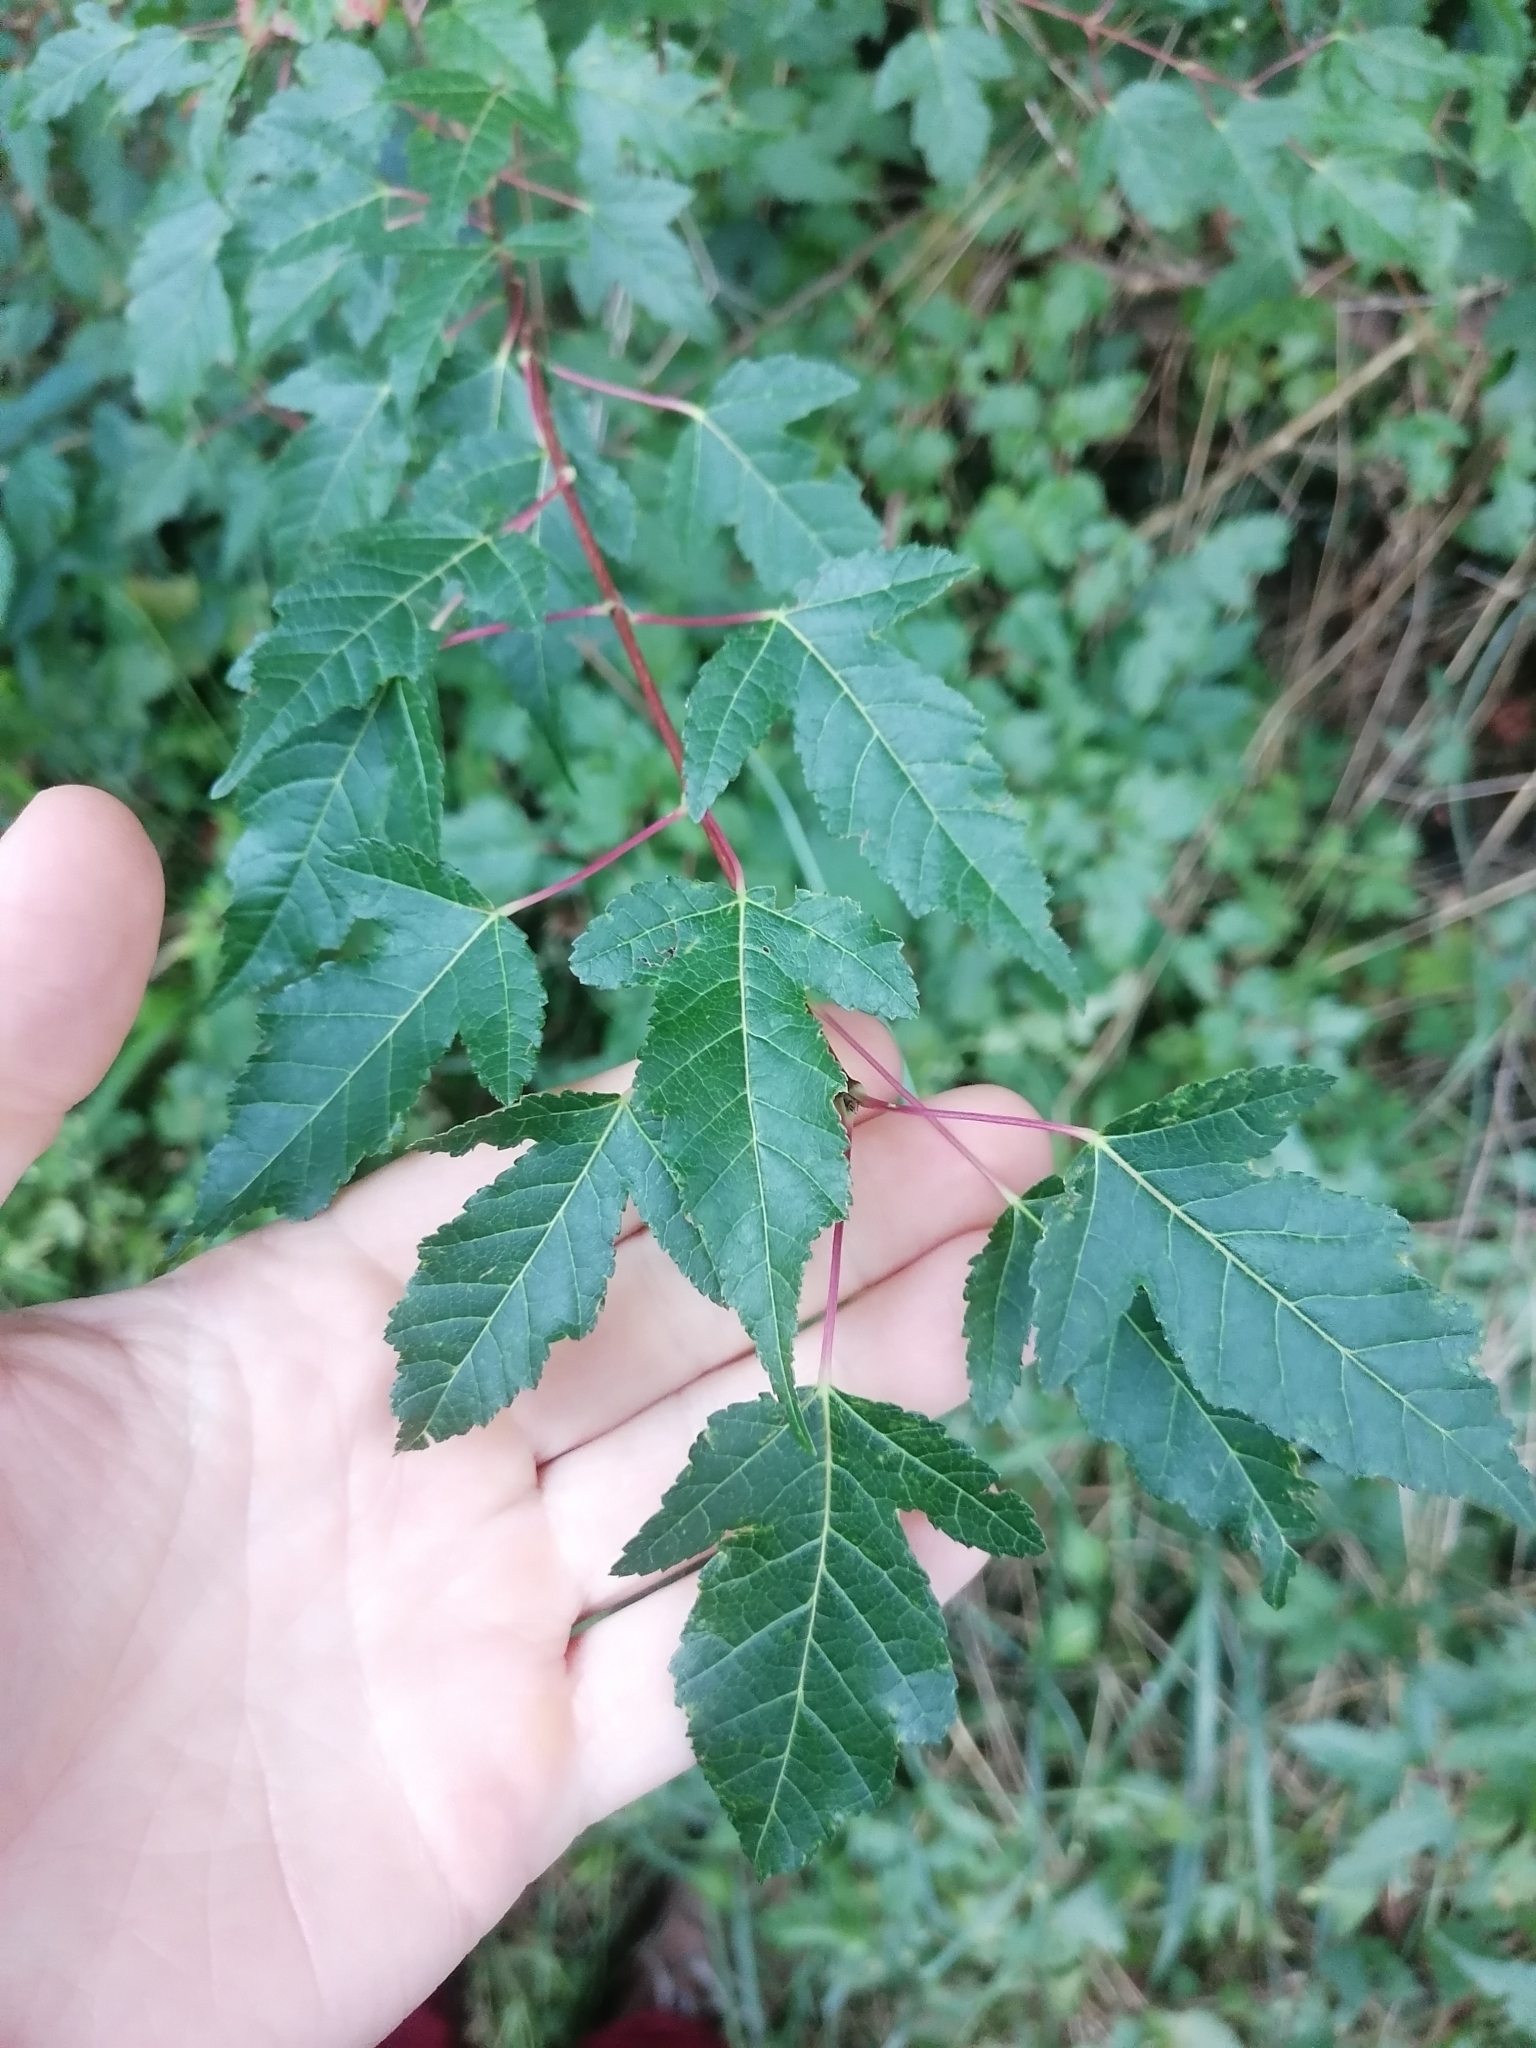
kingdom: Plantae
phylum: Tracheophyta
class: Magnoliopsida
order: Sapindales
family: Sapindaceae
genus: Acer
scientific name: Acer tataricum
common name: Tartar maple
